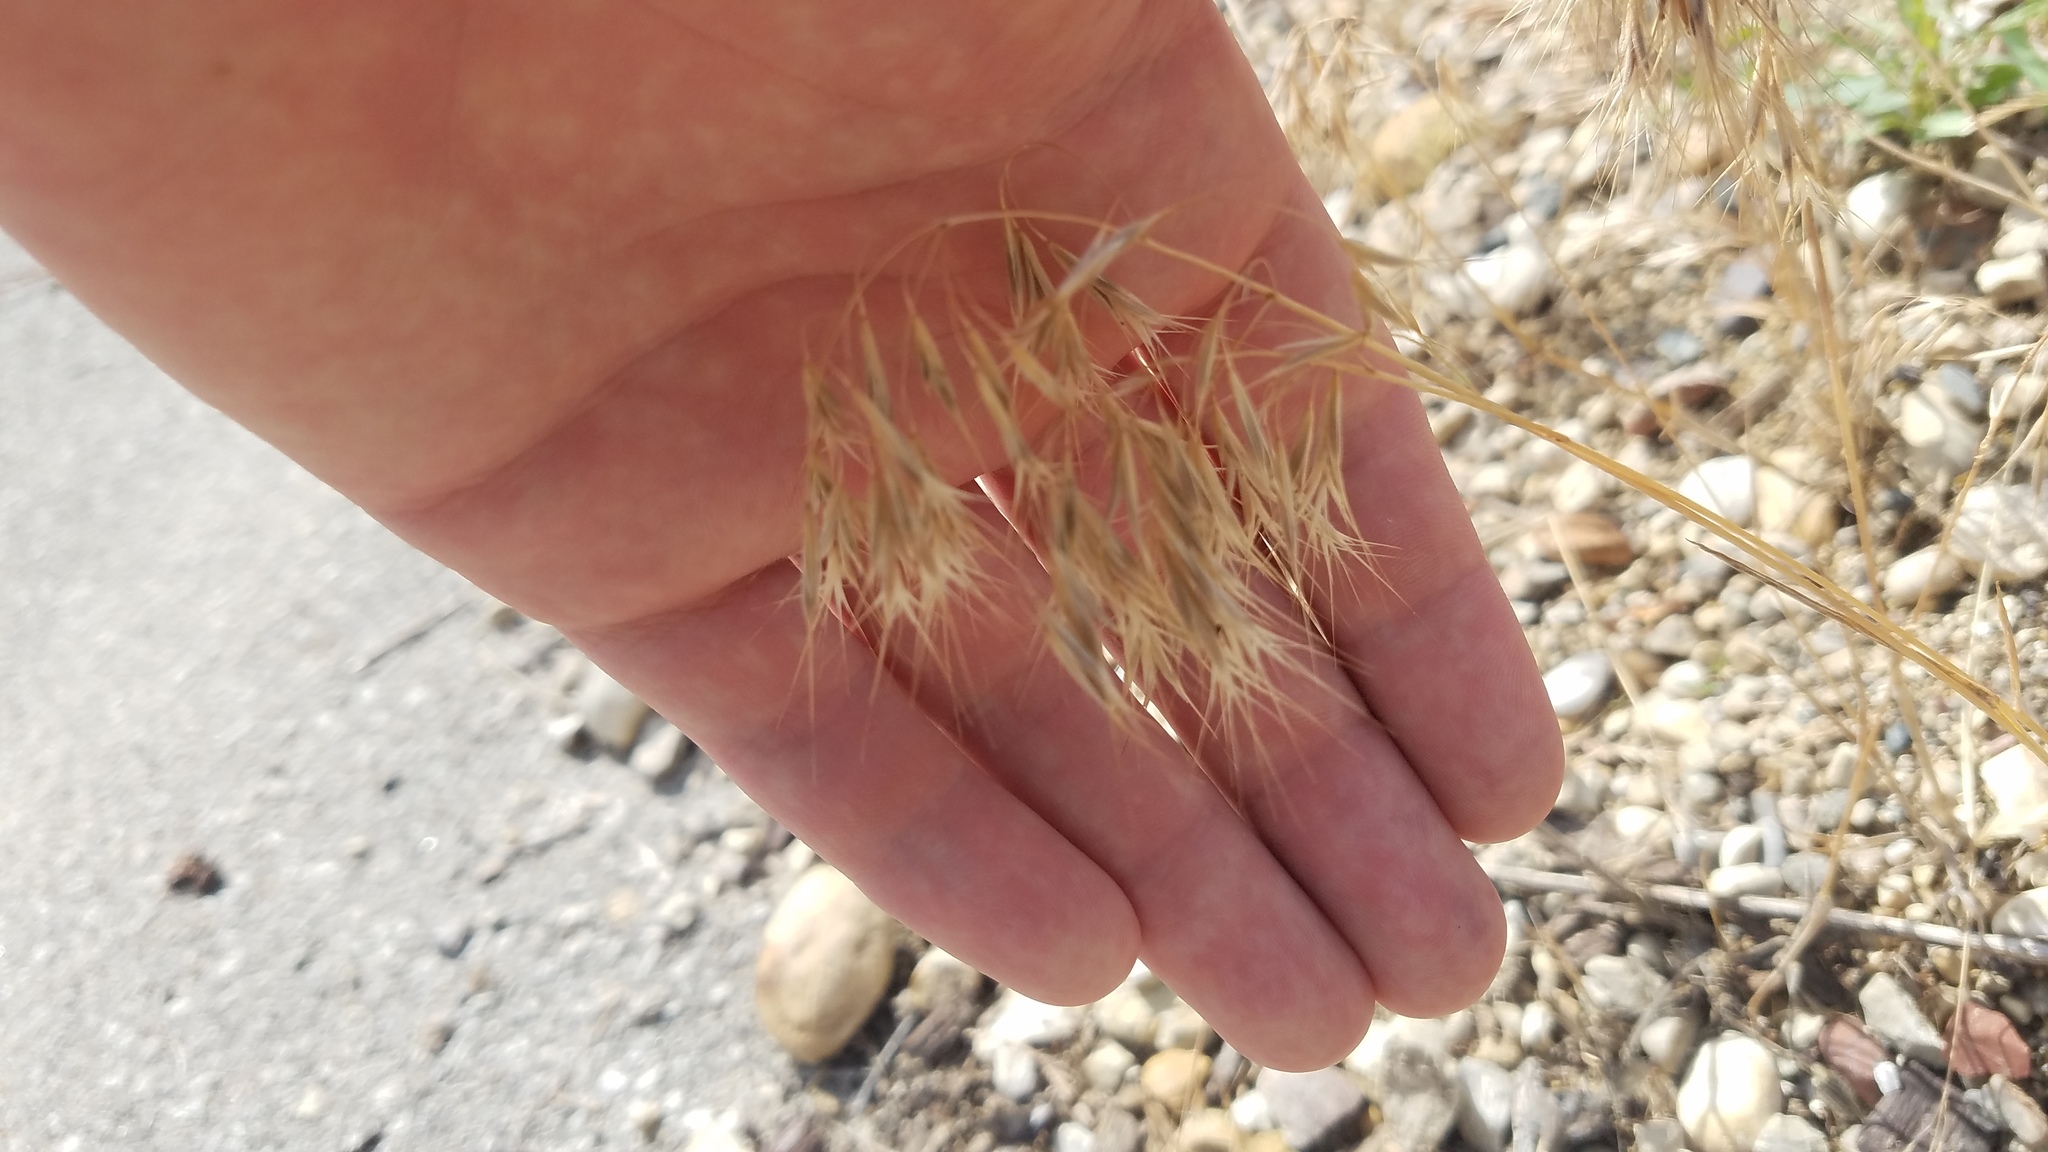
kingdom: Plantae
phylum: Tracheophyta
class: Liliopsida
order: Poales
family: Poaceae
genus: Bromus
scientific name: Bromus tectorum
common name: Cheatgrass
